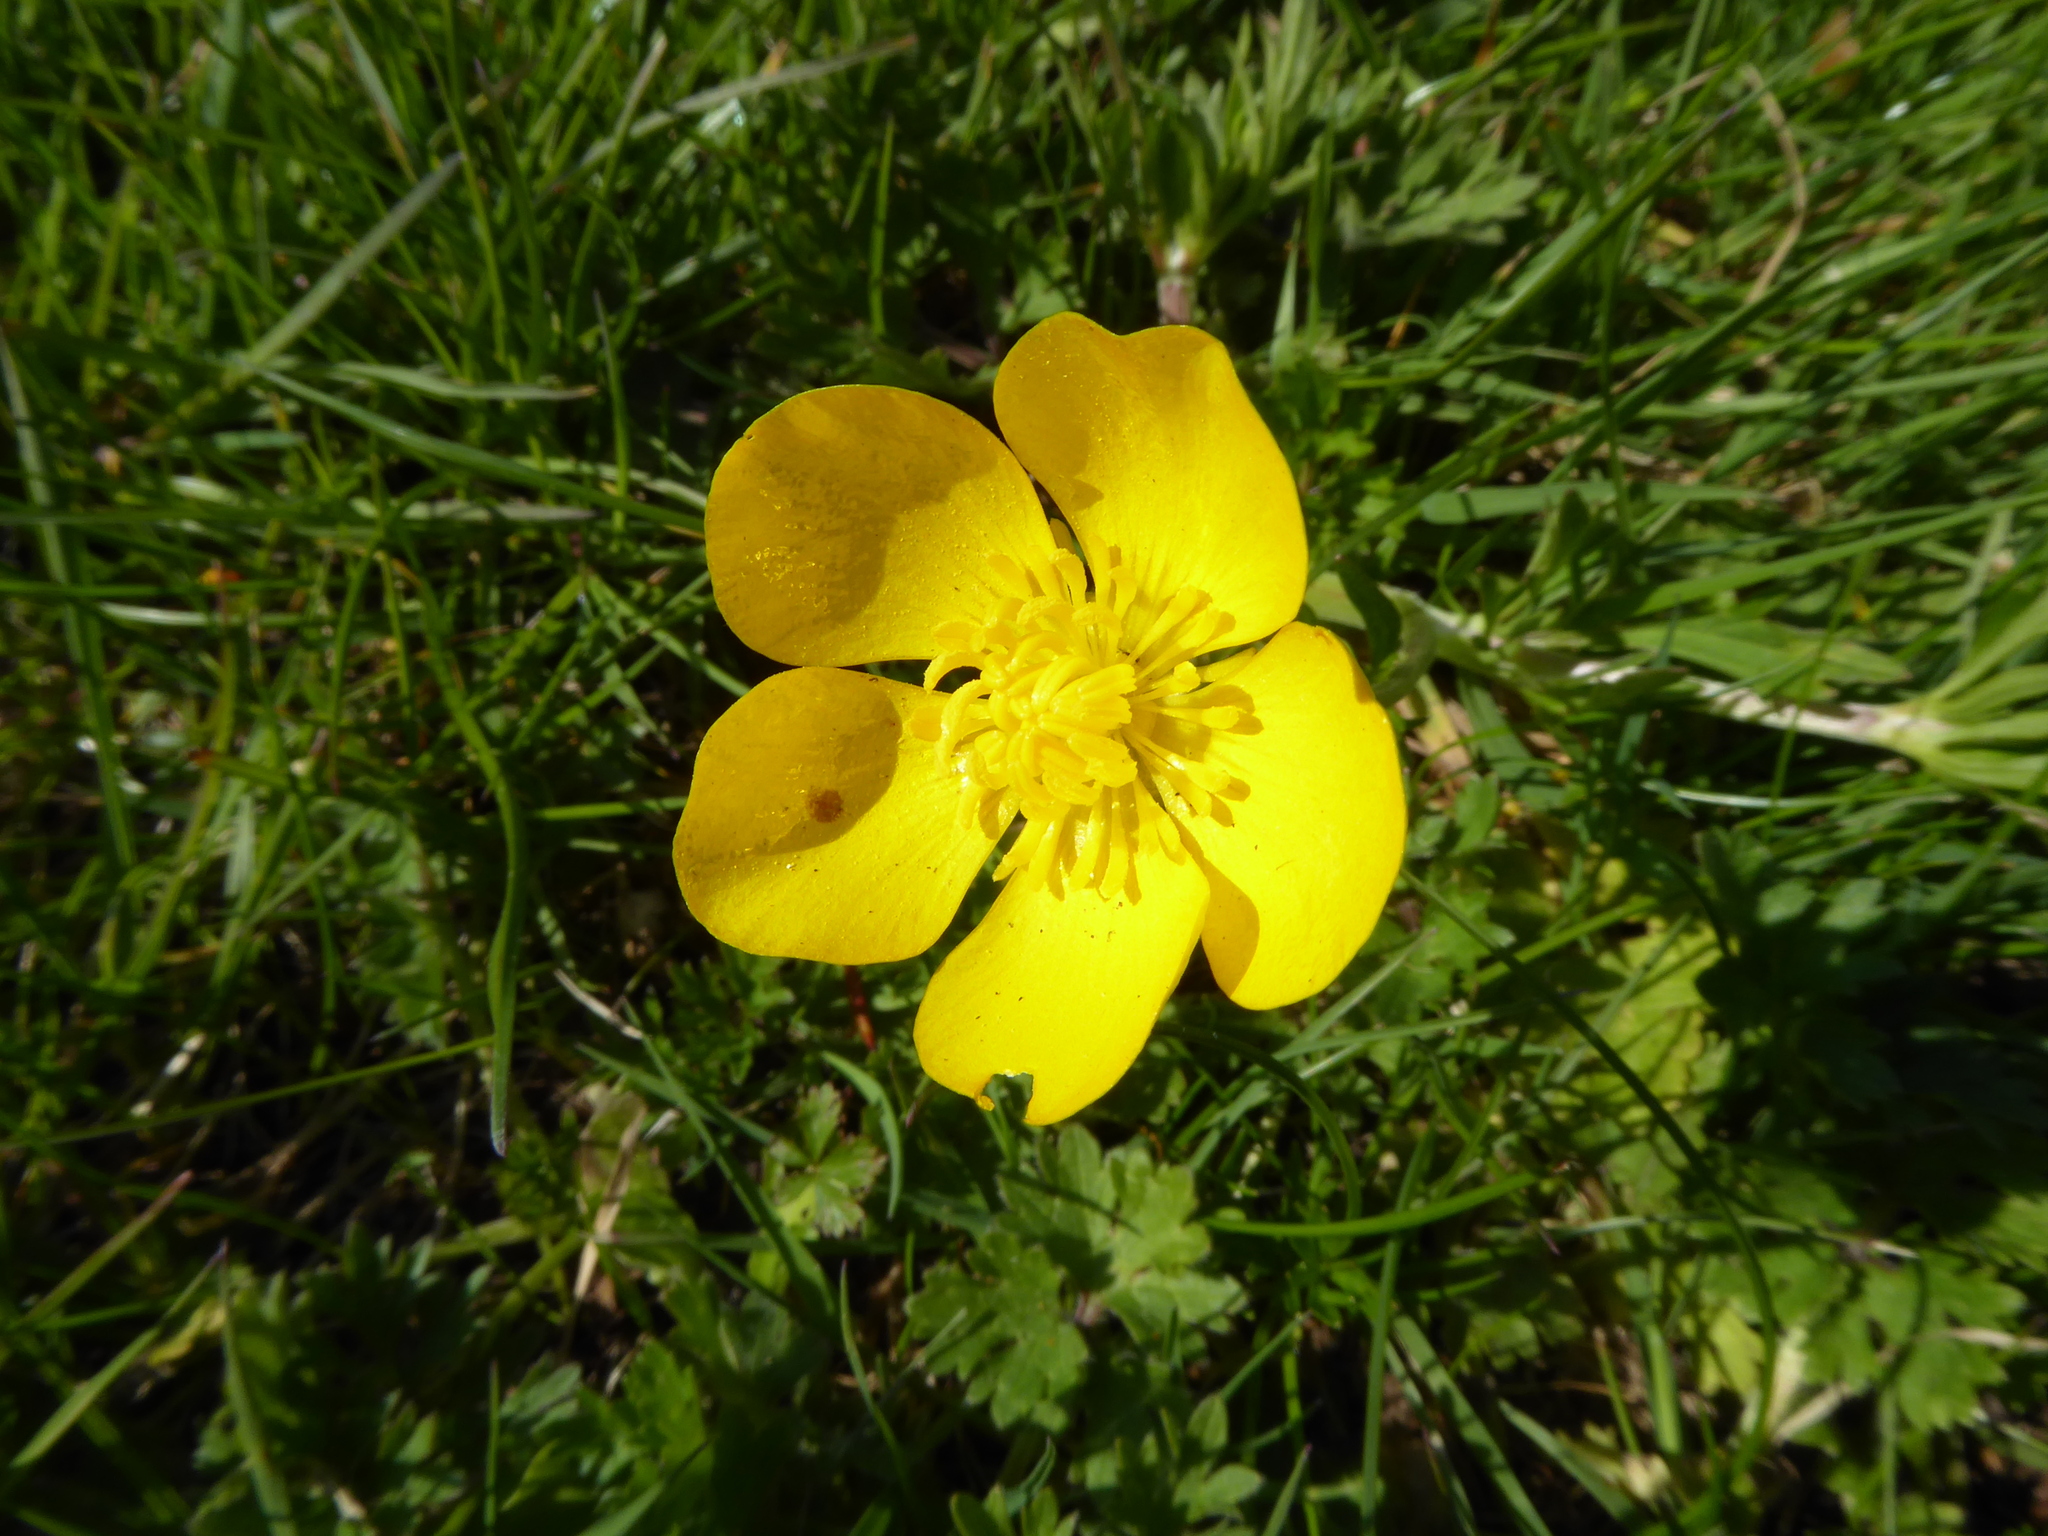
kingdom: Plantae
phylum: Tracheophyta
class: Magnoliopsida
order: Ranunculales
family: Ranunculaceae
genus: Ranunculus
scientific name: Ranunculus bulbosus
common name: Bulbous buttercup
